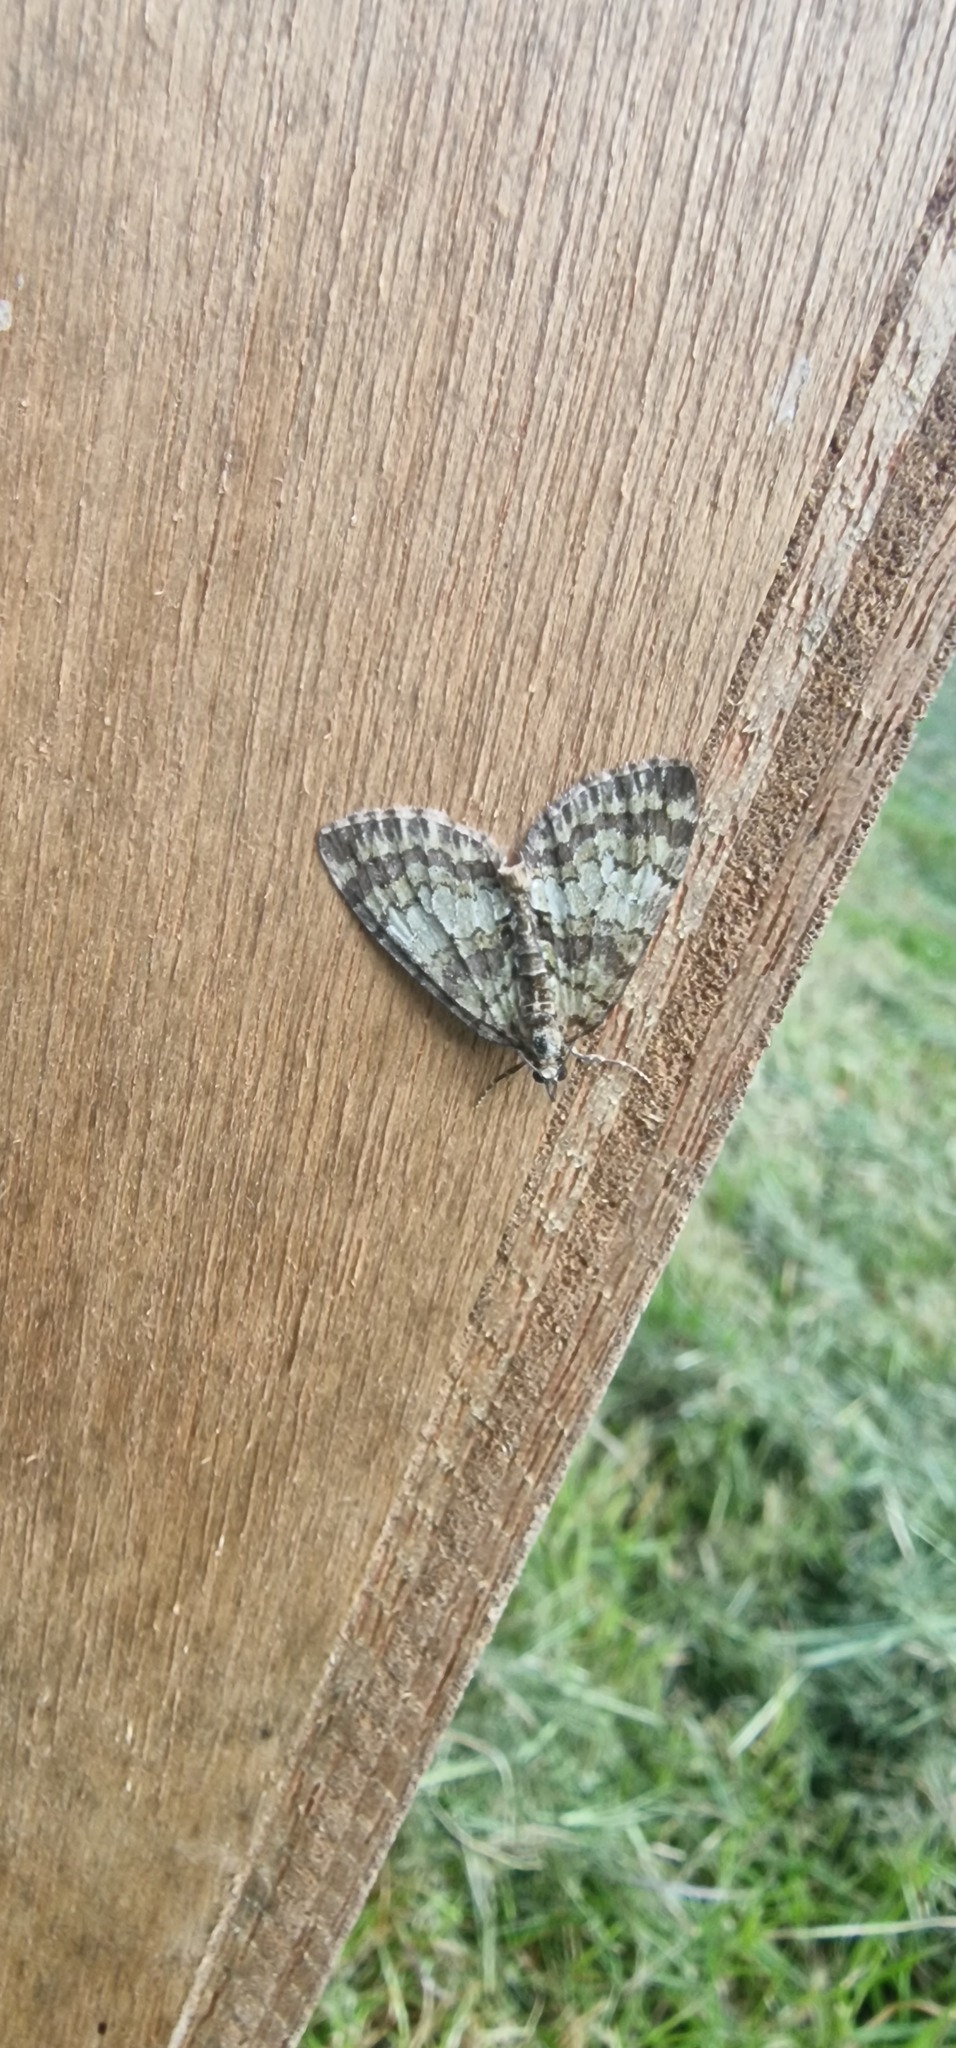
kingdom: Animalia
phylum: Arthropoda
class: Insecta
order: Lepidoptera
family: Geometridae
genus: Hydriomena
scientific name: Hydriomena impluviata
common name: May highflyer
